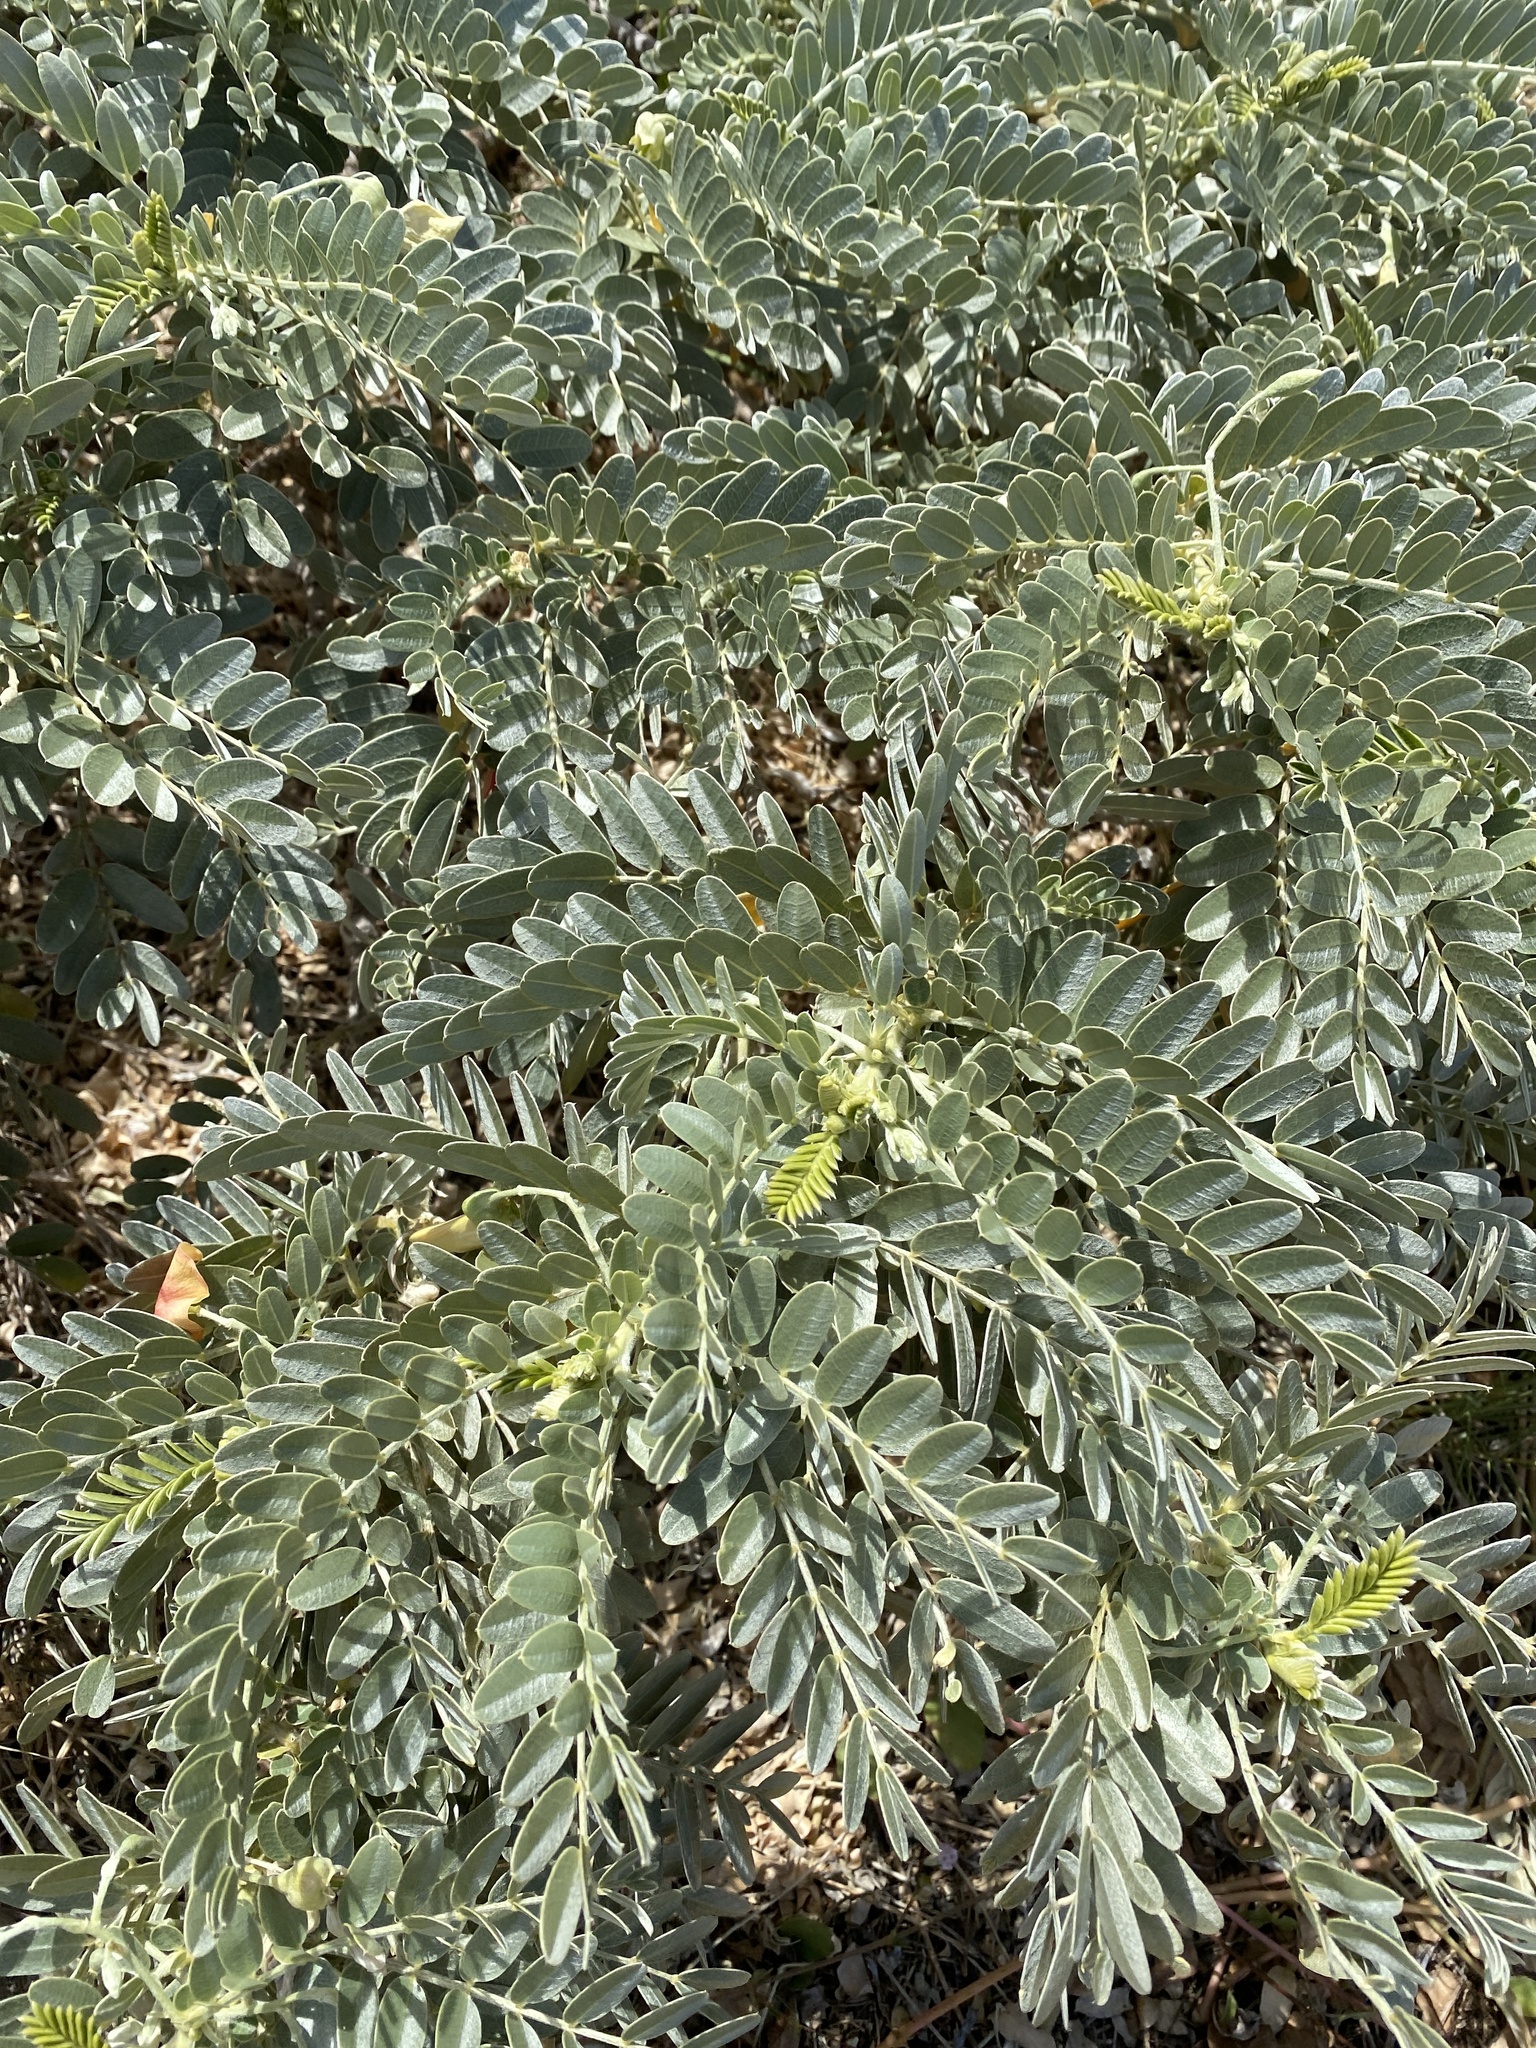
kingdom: Plantae
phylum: Tracheophyta
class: Magnoliopsida
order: Fabales
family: Fabaceae
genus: Sesbania
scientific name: Sesbania tomentosa
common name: `ohai
